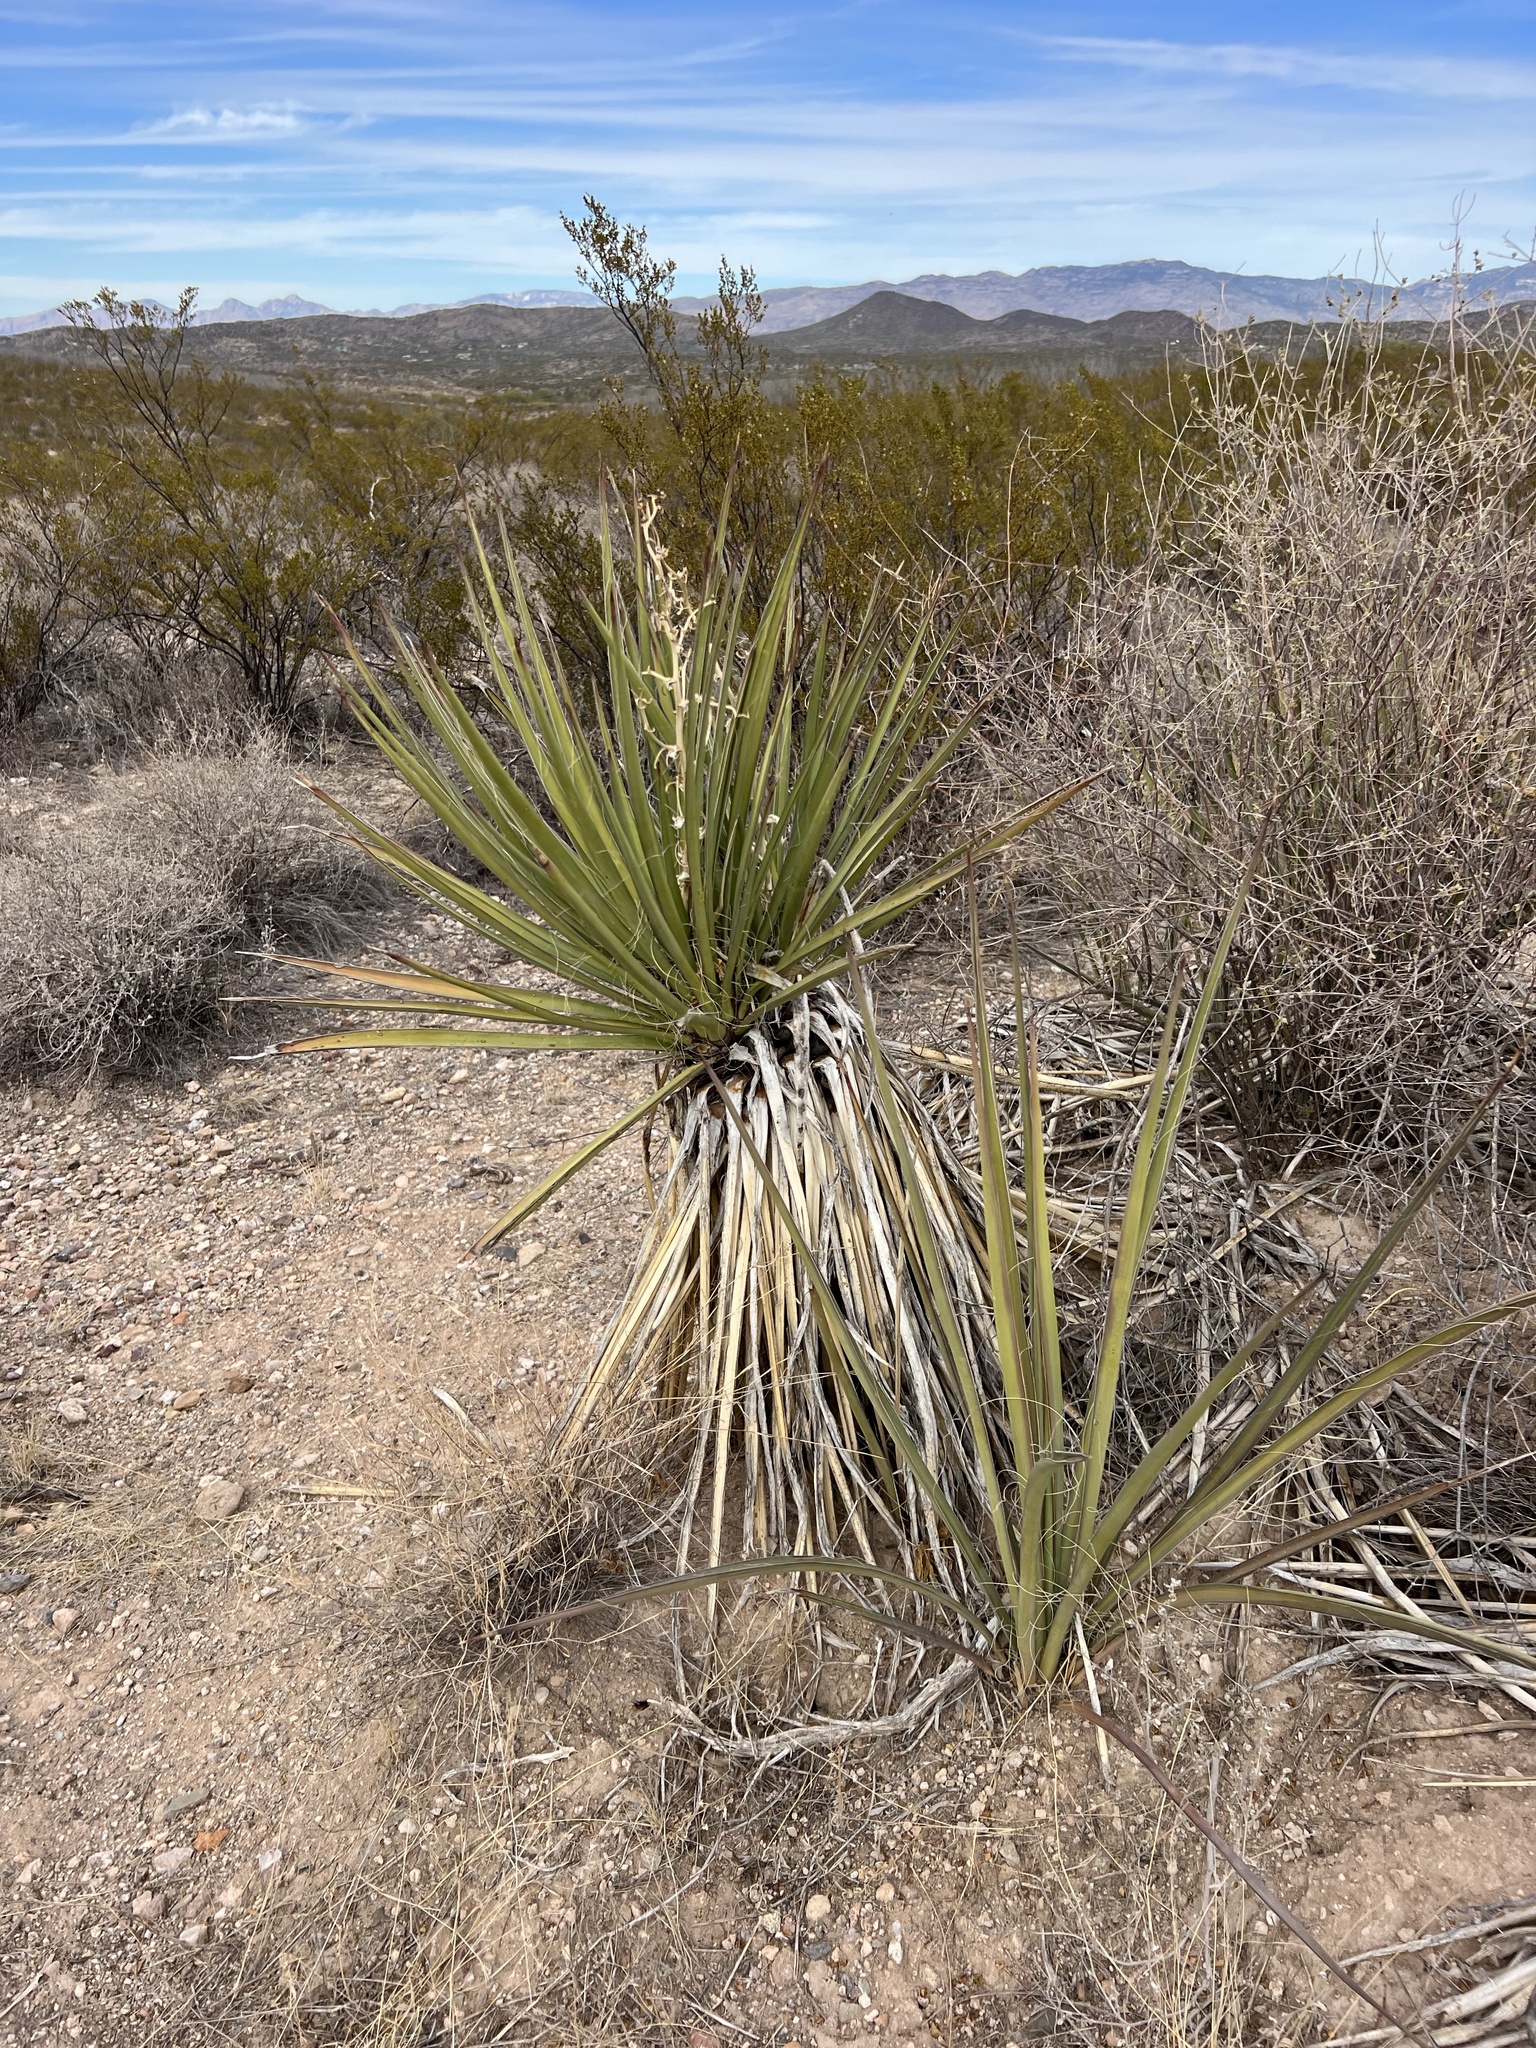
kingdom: Plantae
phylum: Tracheophyta
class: Liliopsida
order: Asparagales
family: Asparagaceae
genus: Yucca
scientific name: Yucca baccata
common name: Banana yucca
